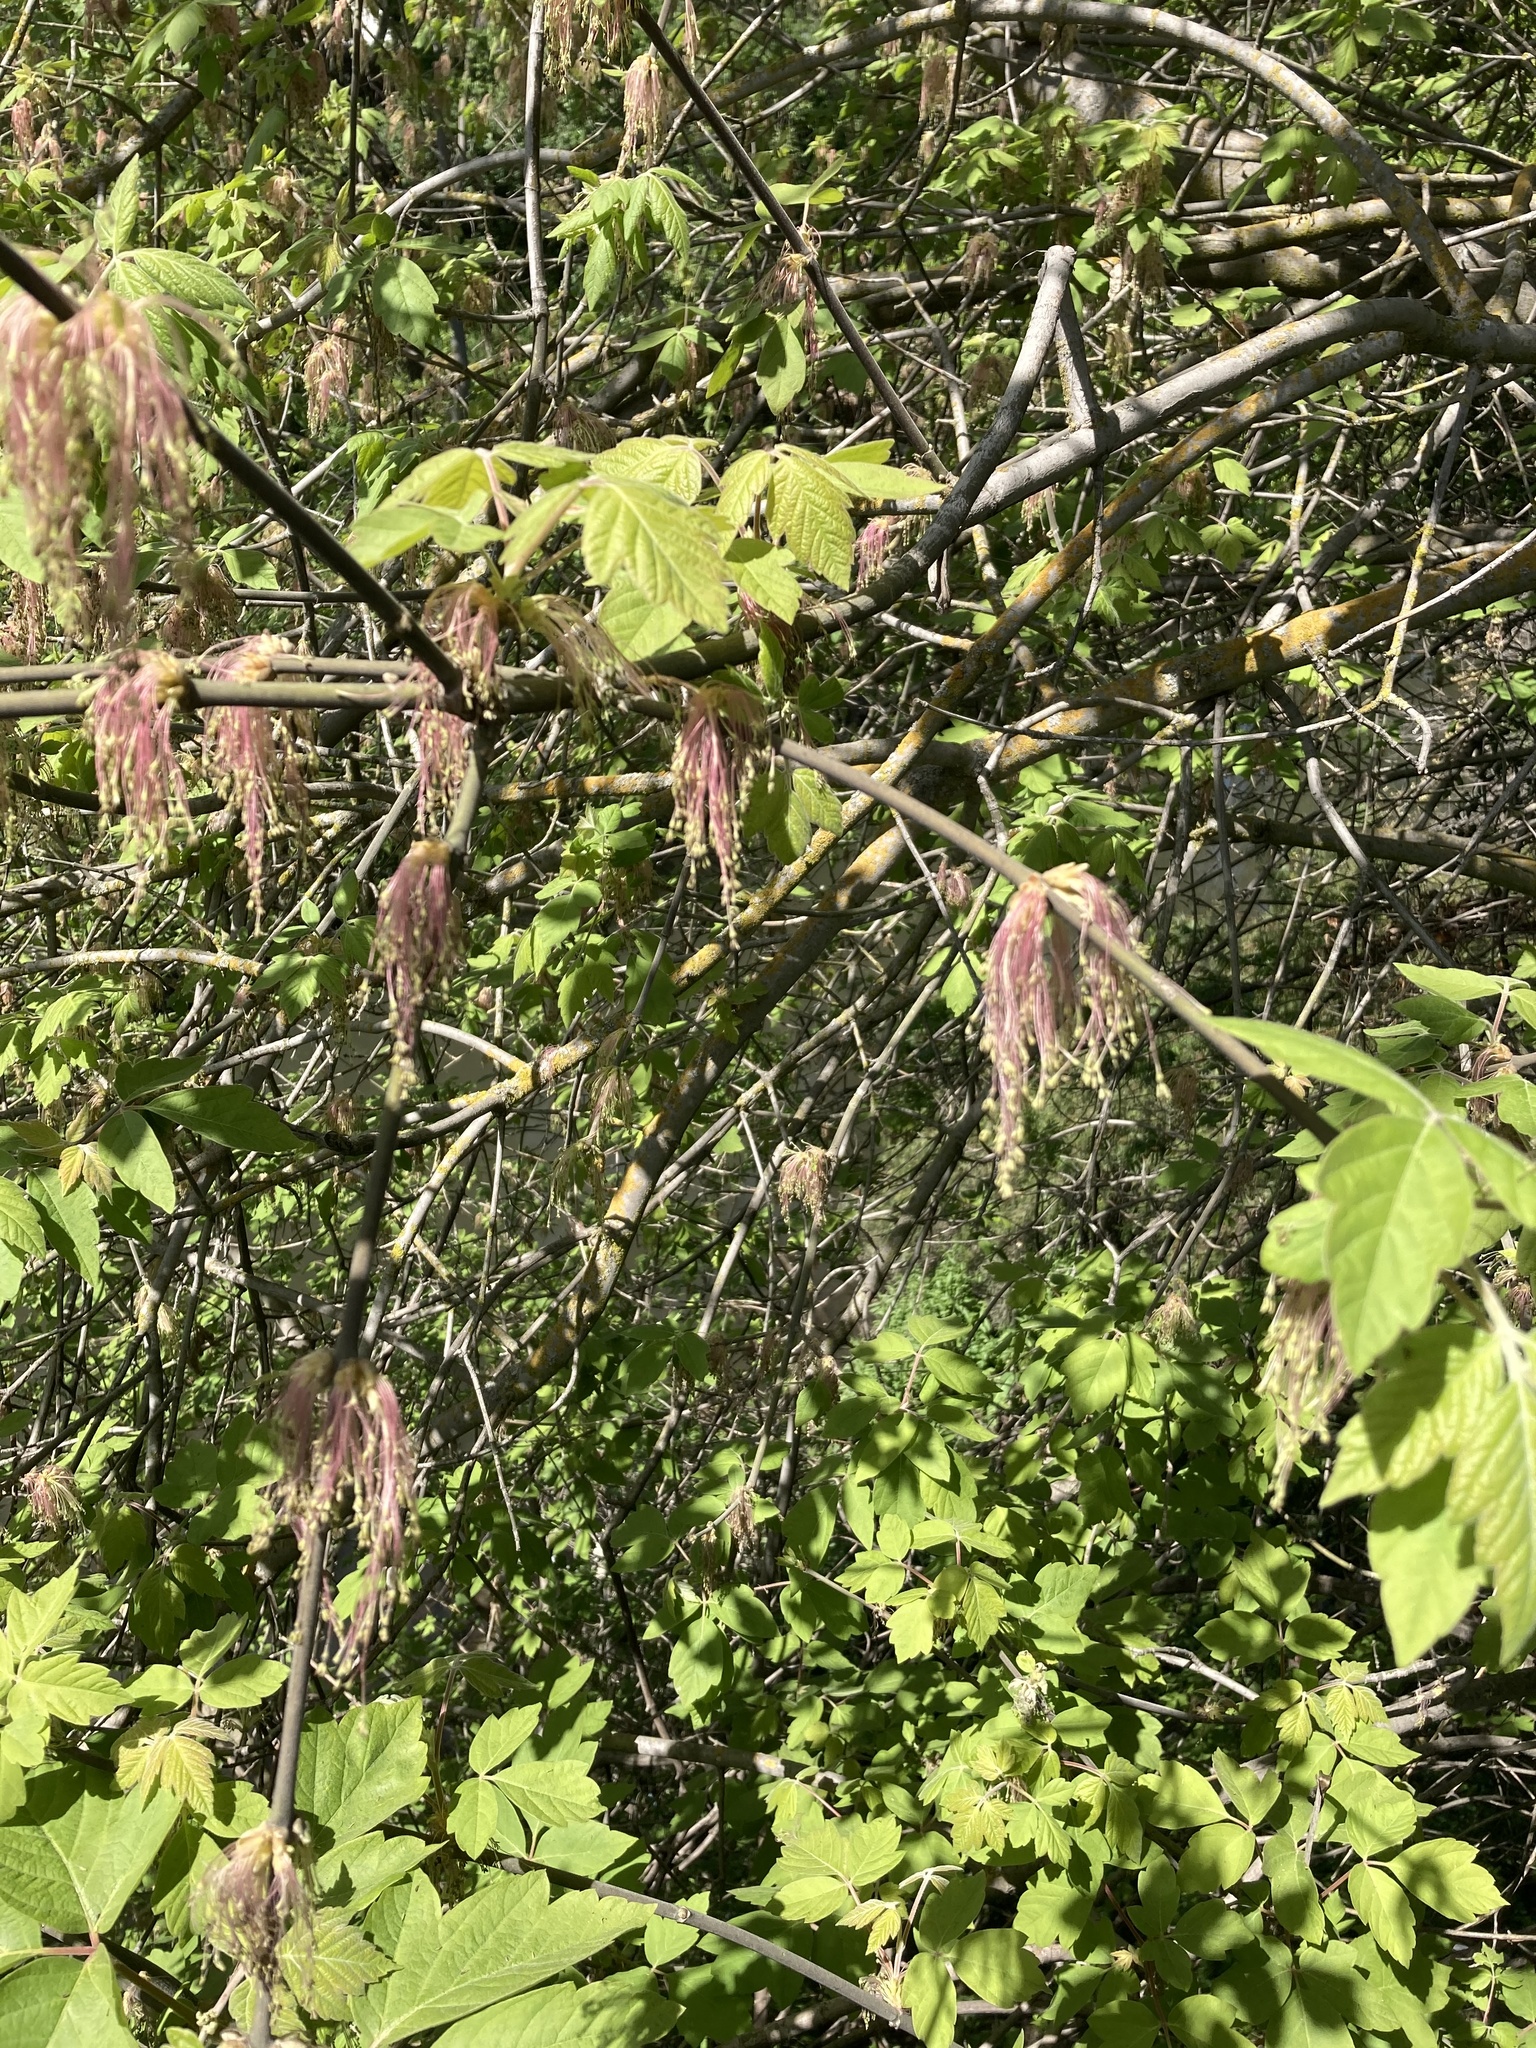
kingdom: Plantae
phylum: Tracheophyta
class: Magnoliopsida
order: Sapindales
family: Sapindaceae
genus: Acer
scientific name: Acer negundo
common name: Ashleaf maple
